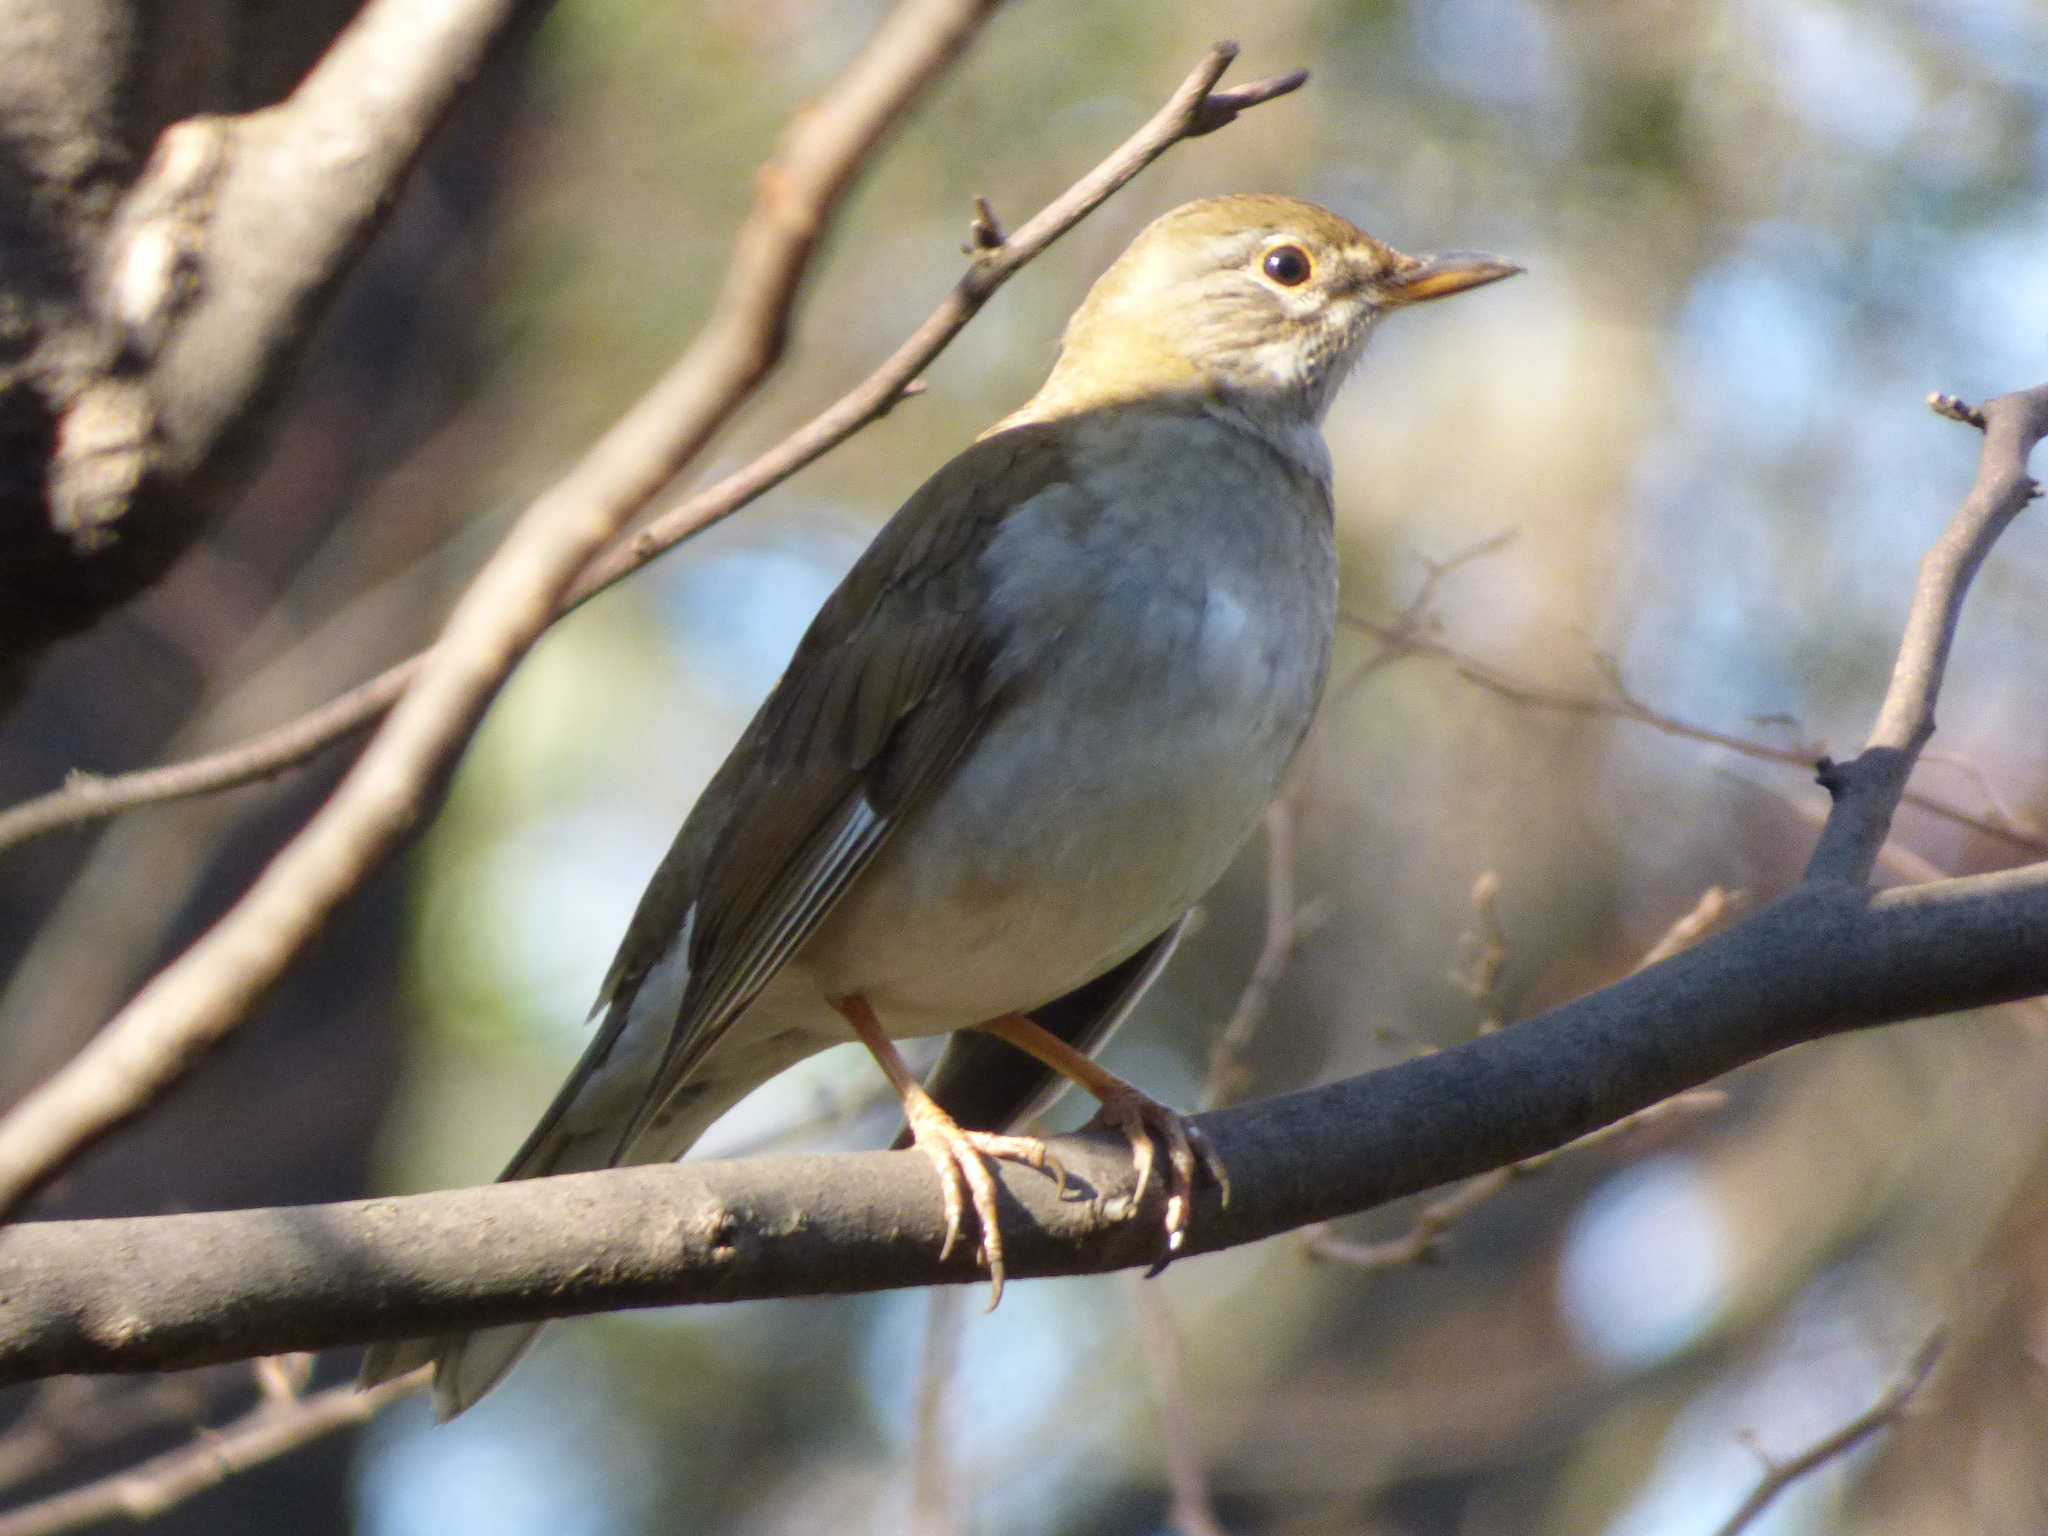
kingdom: Animalia
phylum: Chordata
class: Aves
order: Passeriformes
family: Turdidae
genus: Turdus
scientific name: Turdus pallidus
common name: Pale thrush
